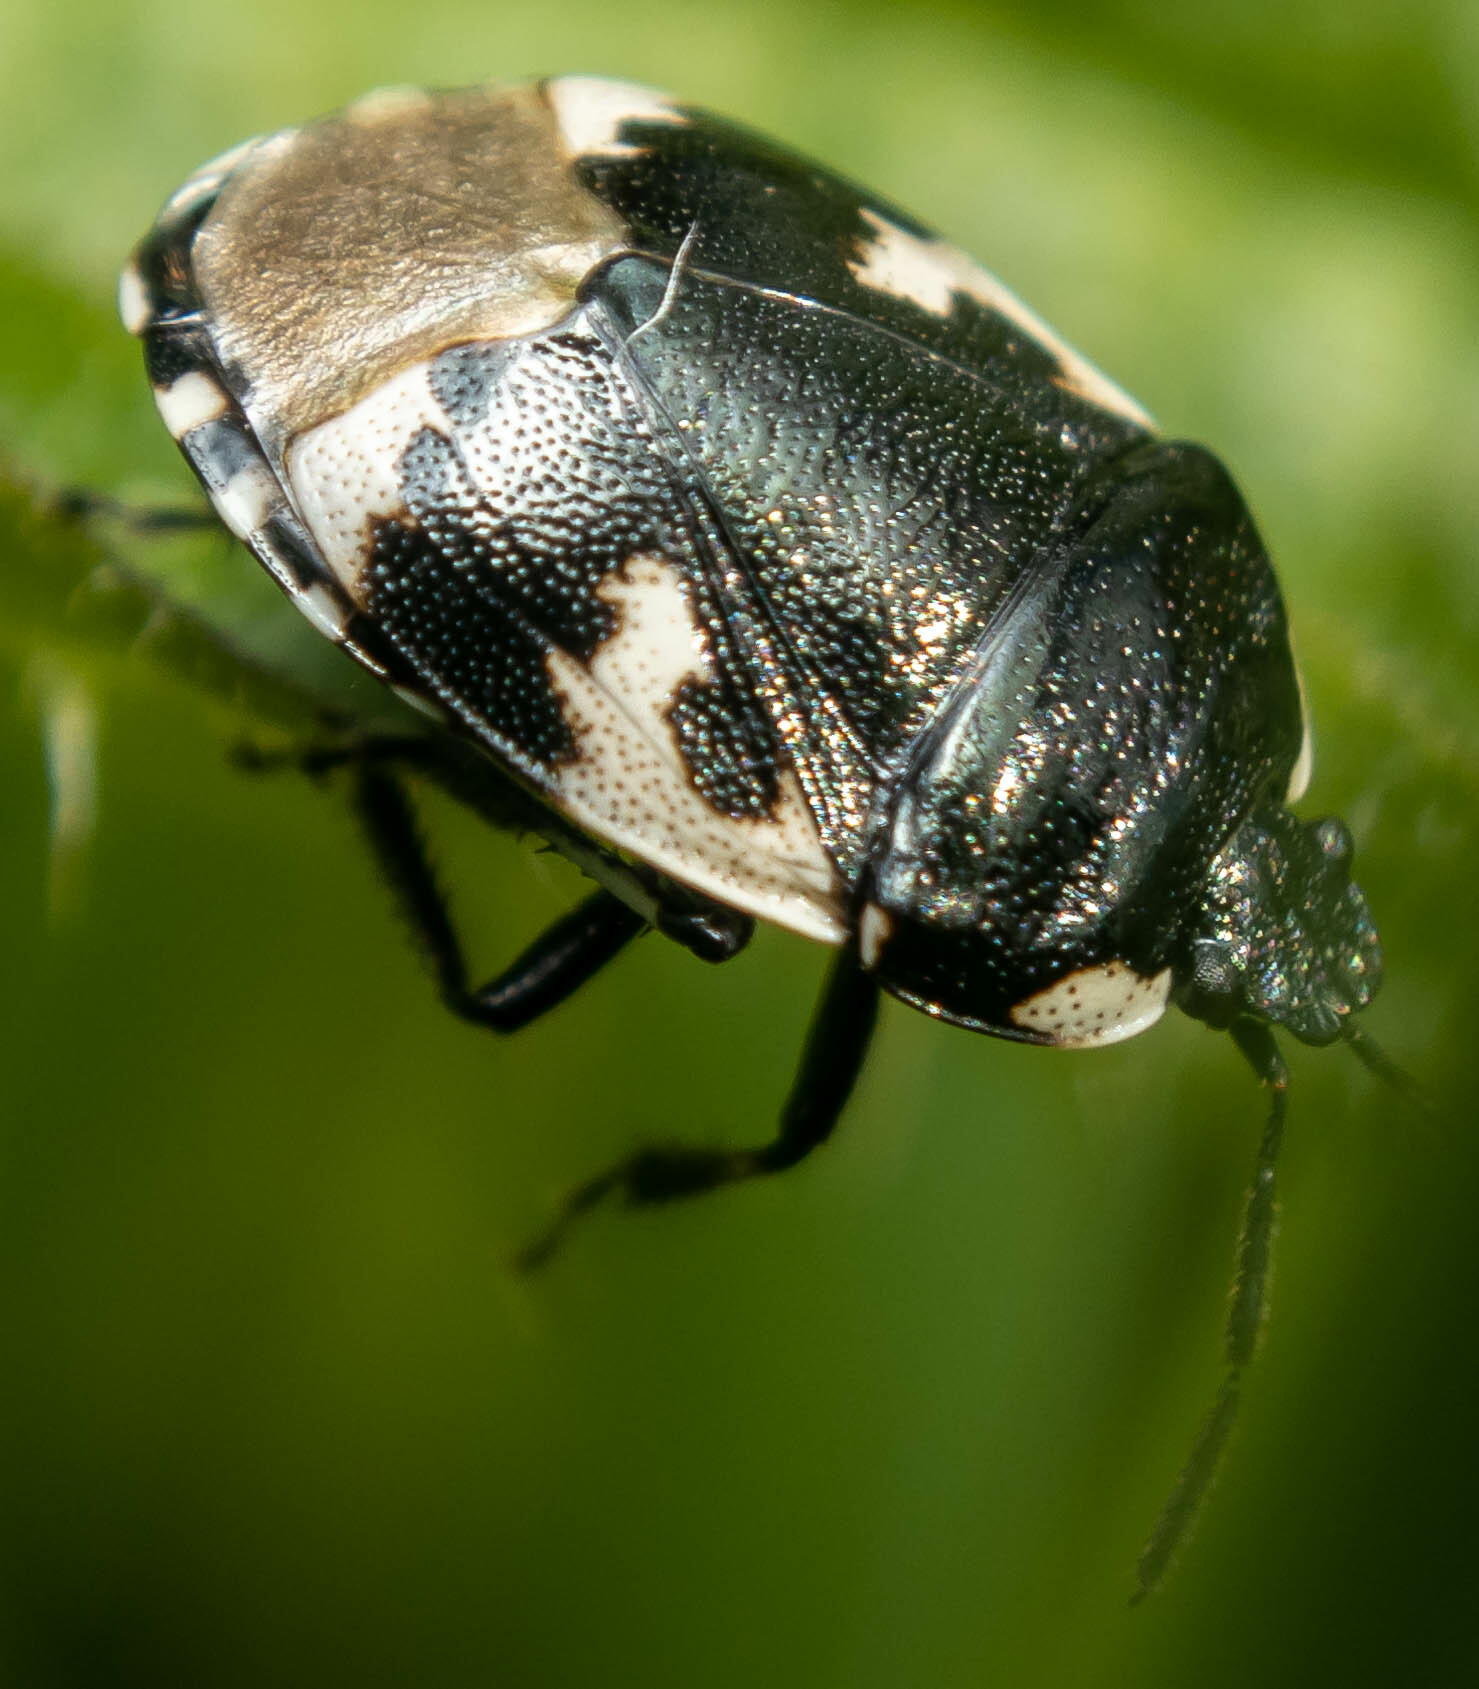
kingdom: Animalia
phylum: Arthropoda
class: Insecta
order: Hemiptera
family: Cydnidae
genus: Tritomegas
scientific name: Tritomegas bicolor
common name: Pied shieldbug
